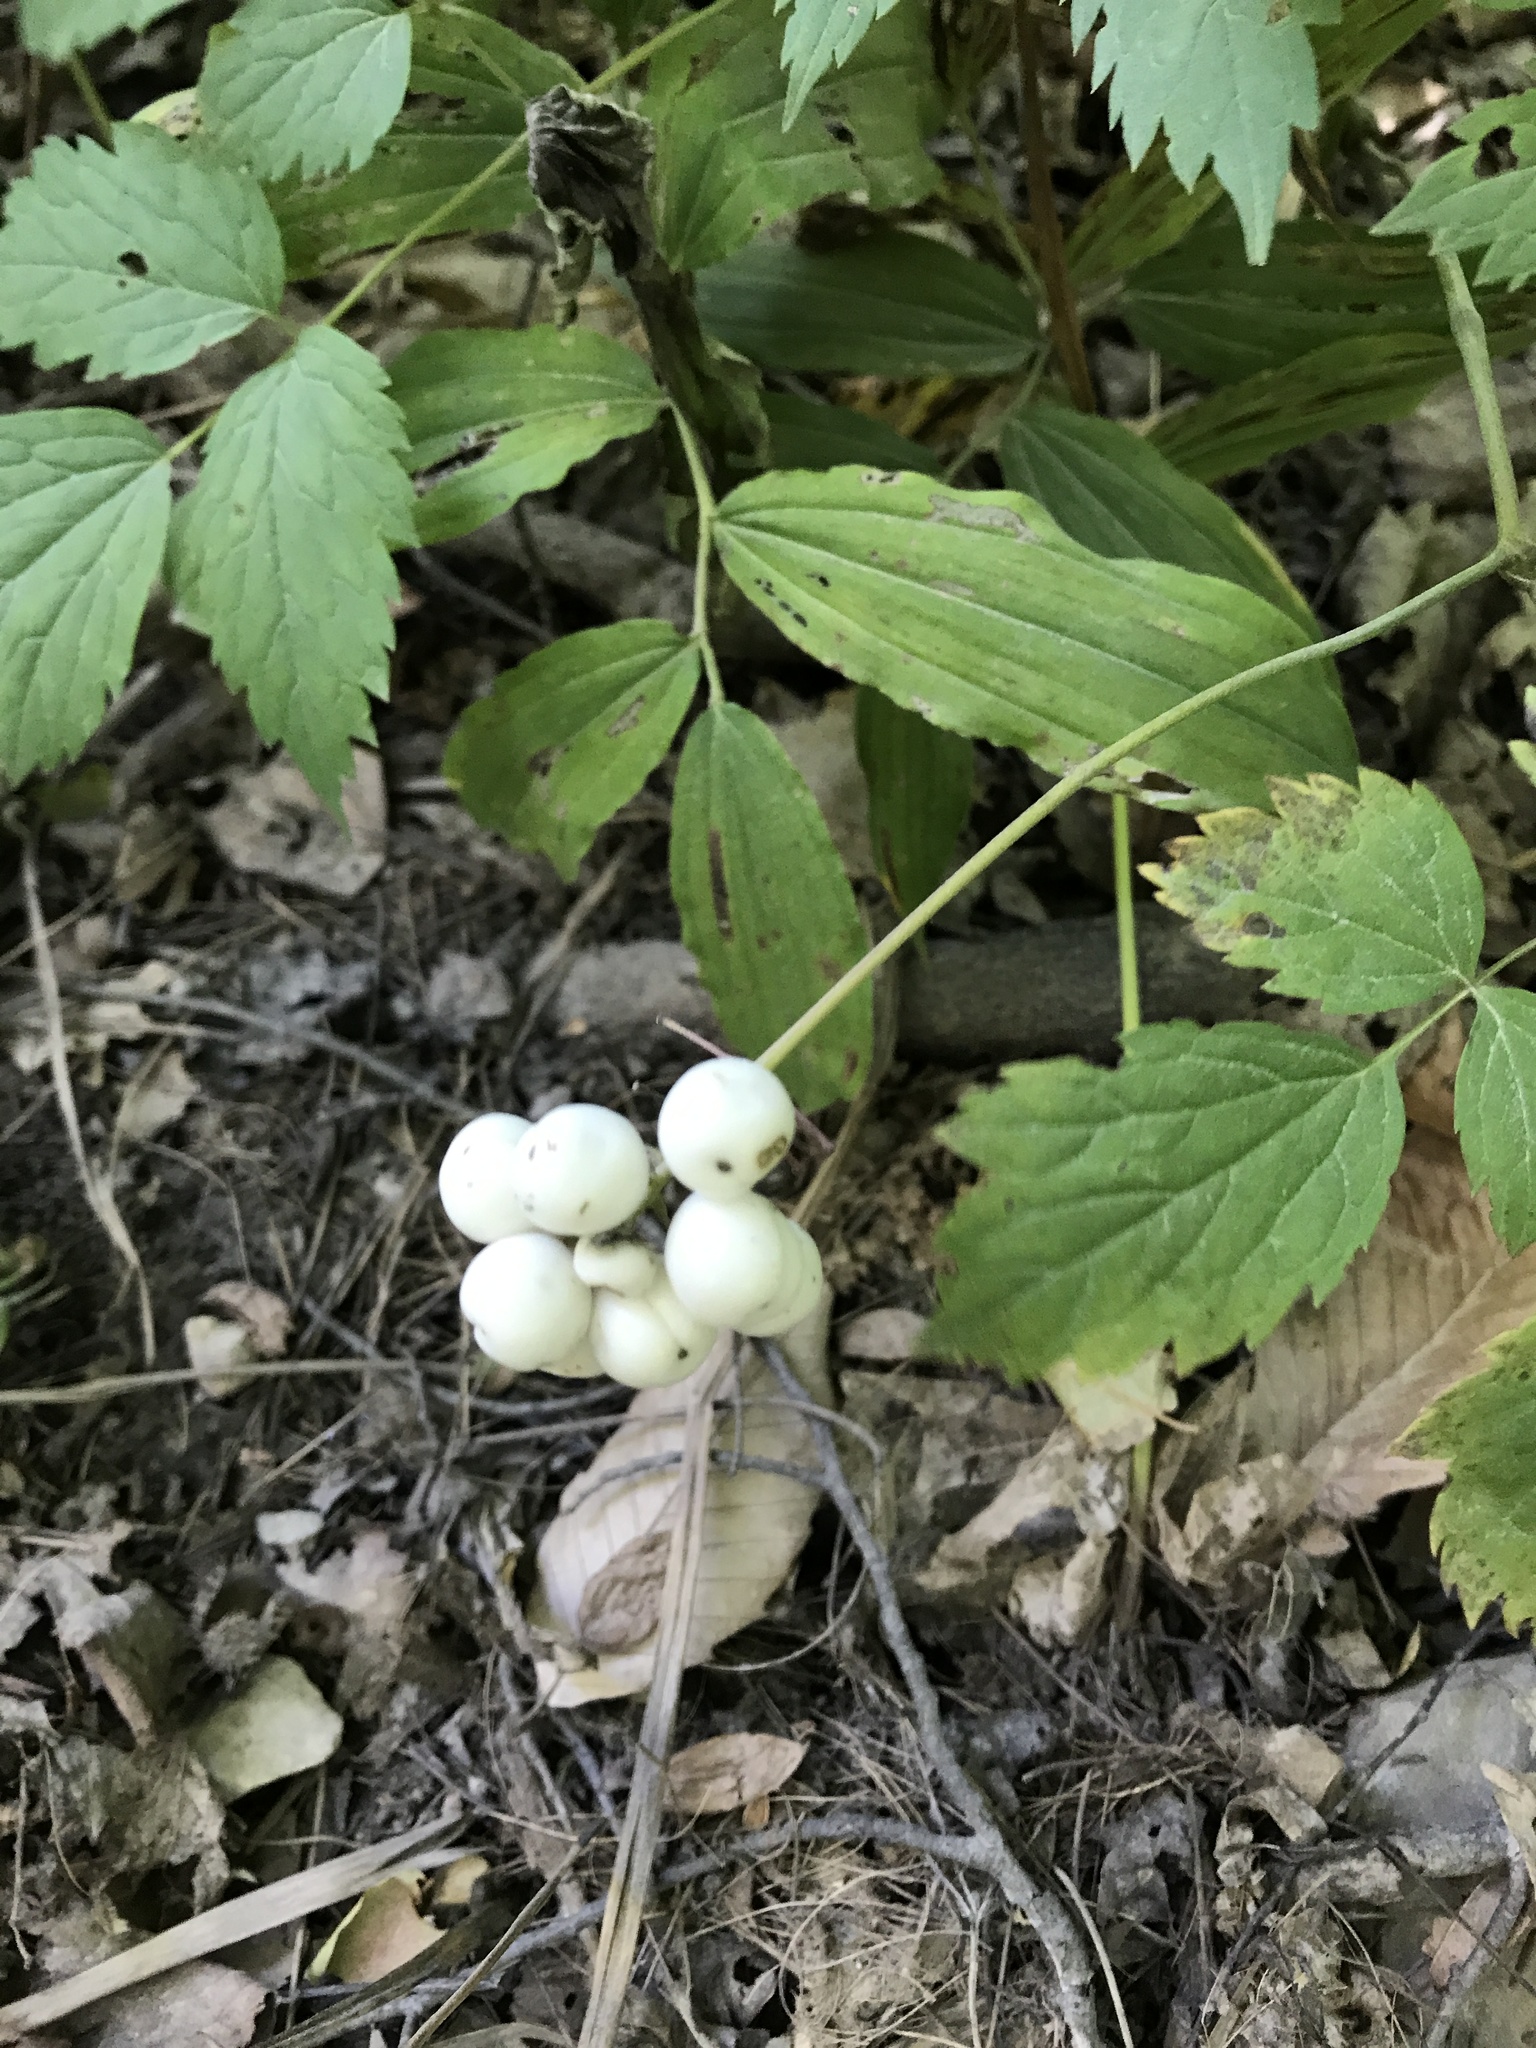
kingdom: Plantae
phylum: Tracheophyta
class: Magnoliopsida
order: Ranunculales
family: Ranunculaceae
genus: Actaea
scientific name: Actaea rubra
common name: Red baneberry
